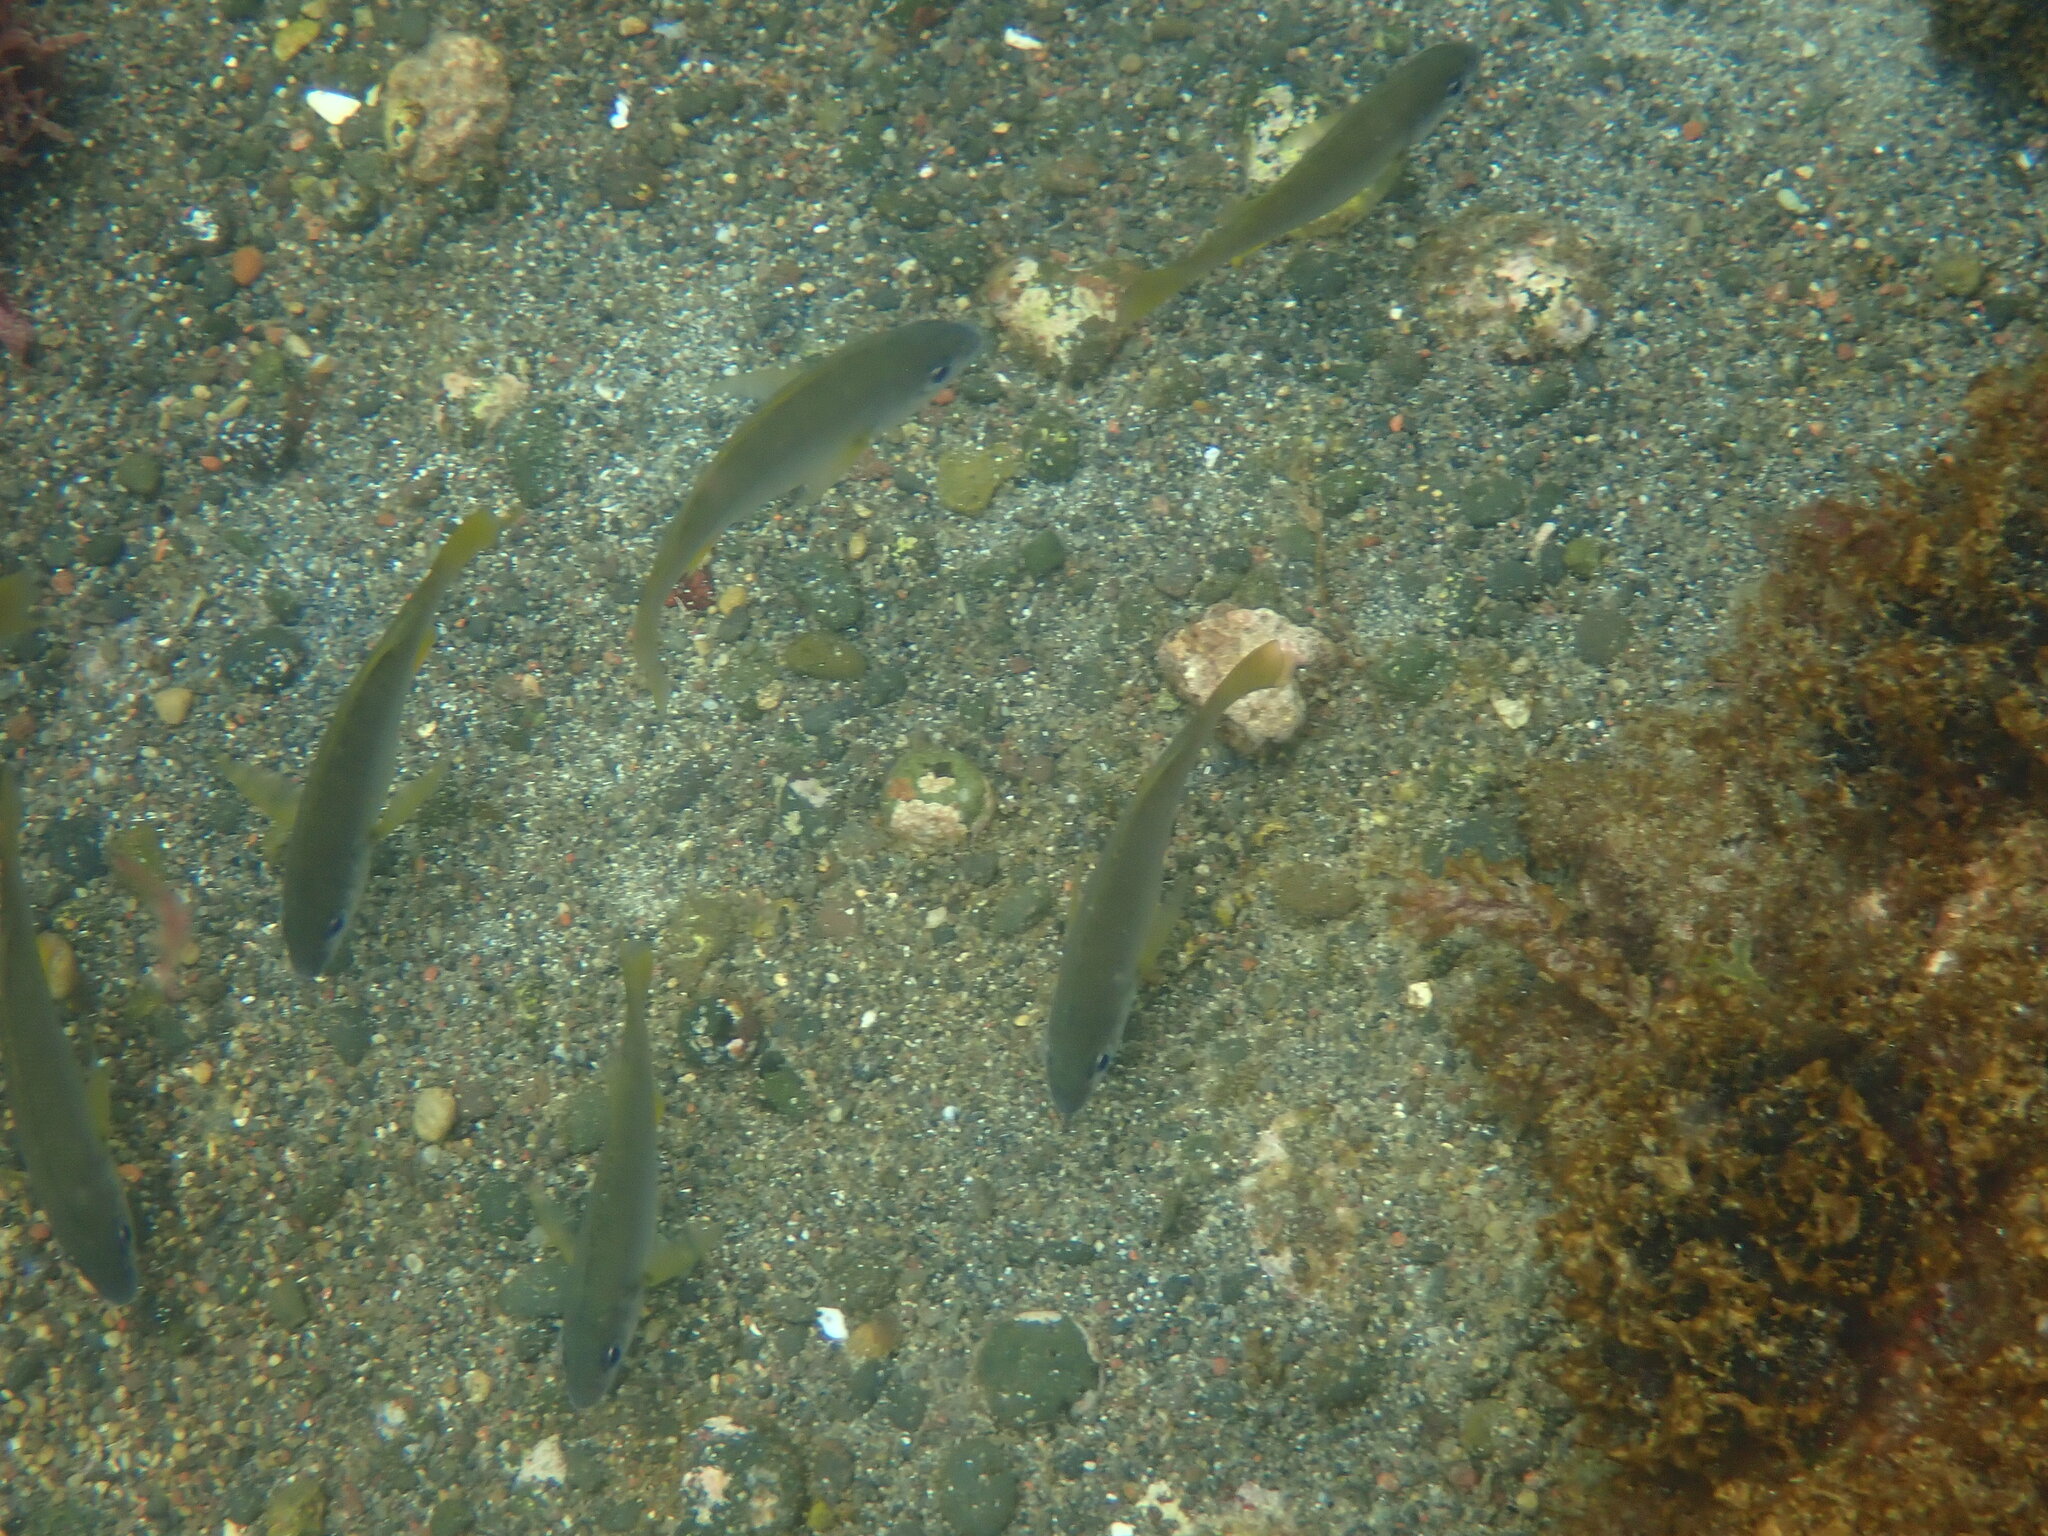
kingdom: Animalia
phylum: Chordata
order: Perciformes
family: Haemulidae
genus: Pomadasys
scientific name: Pomadasys incisus
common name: Bastard grunt
